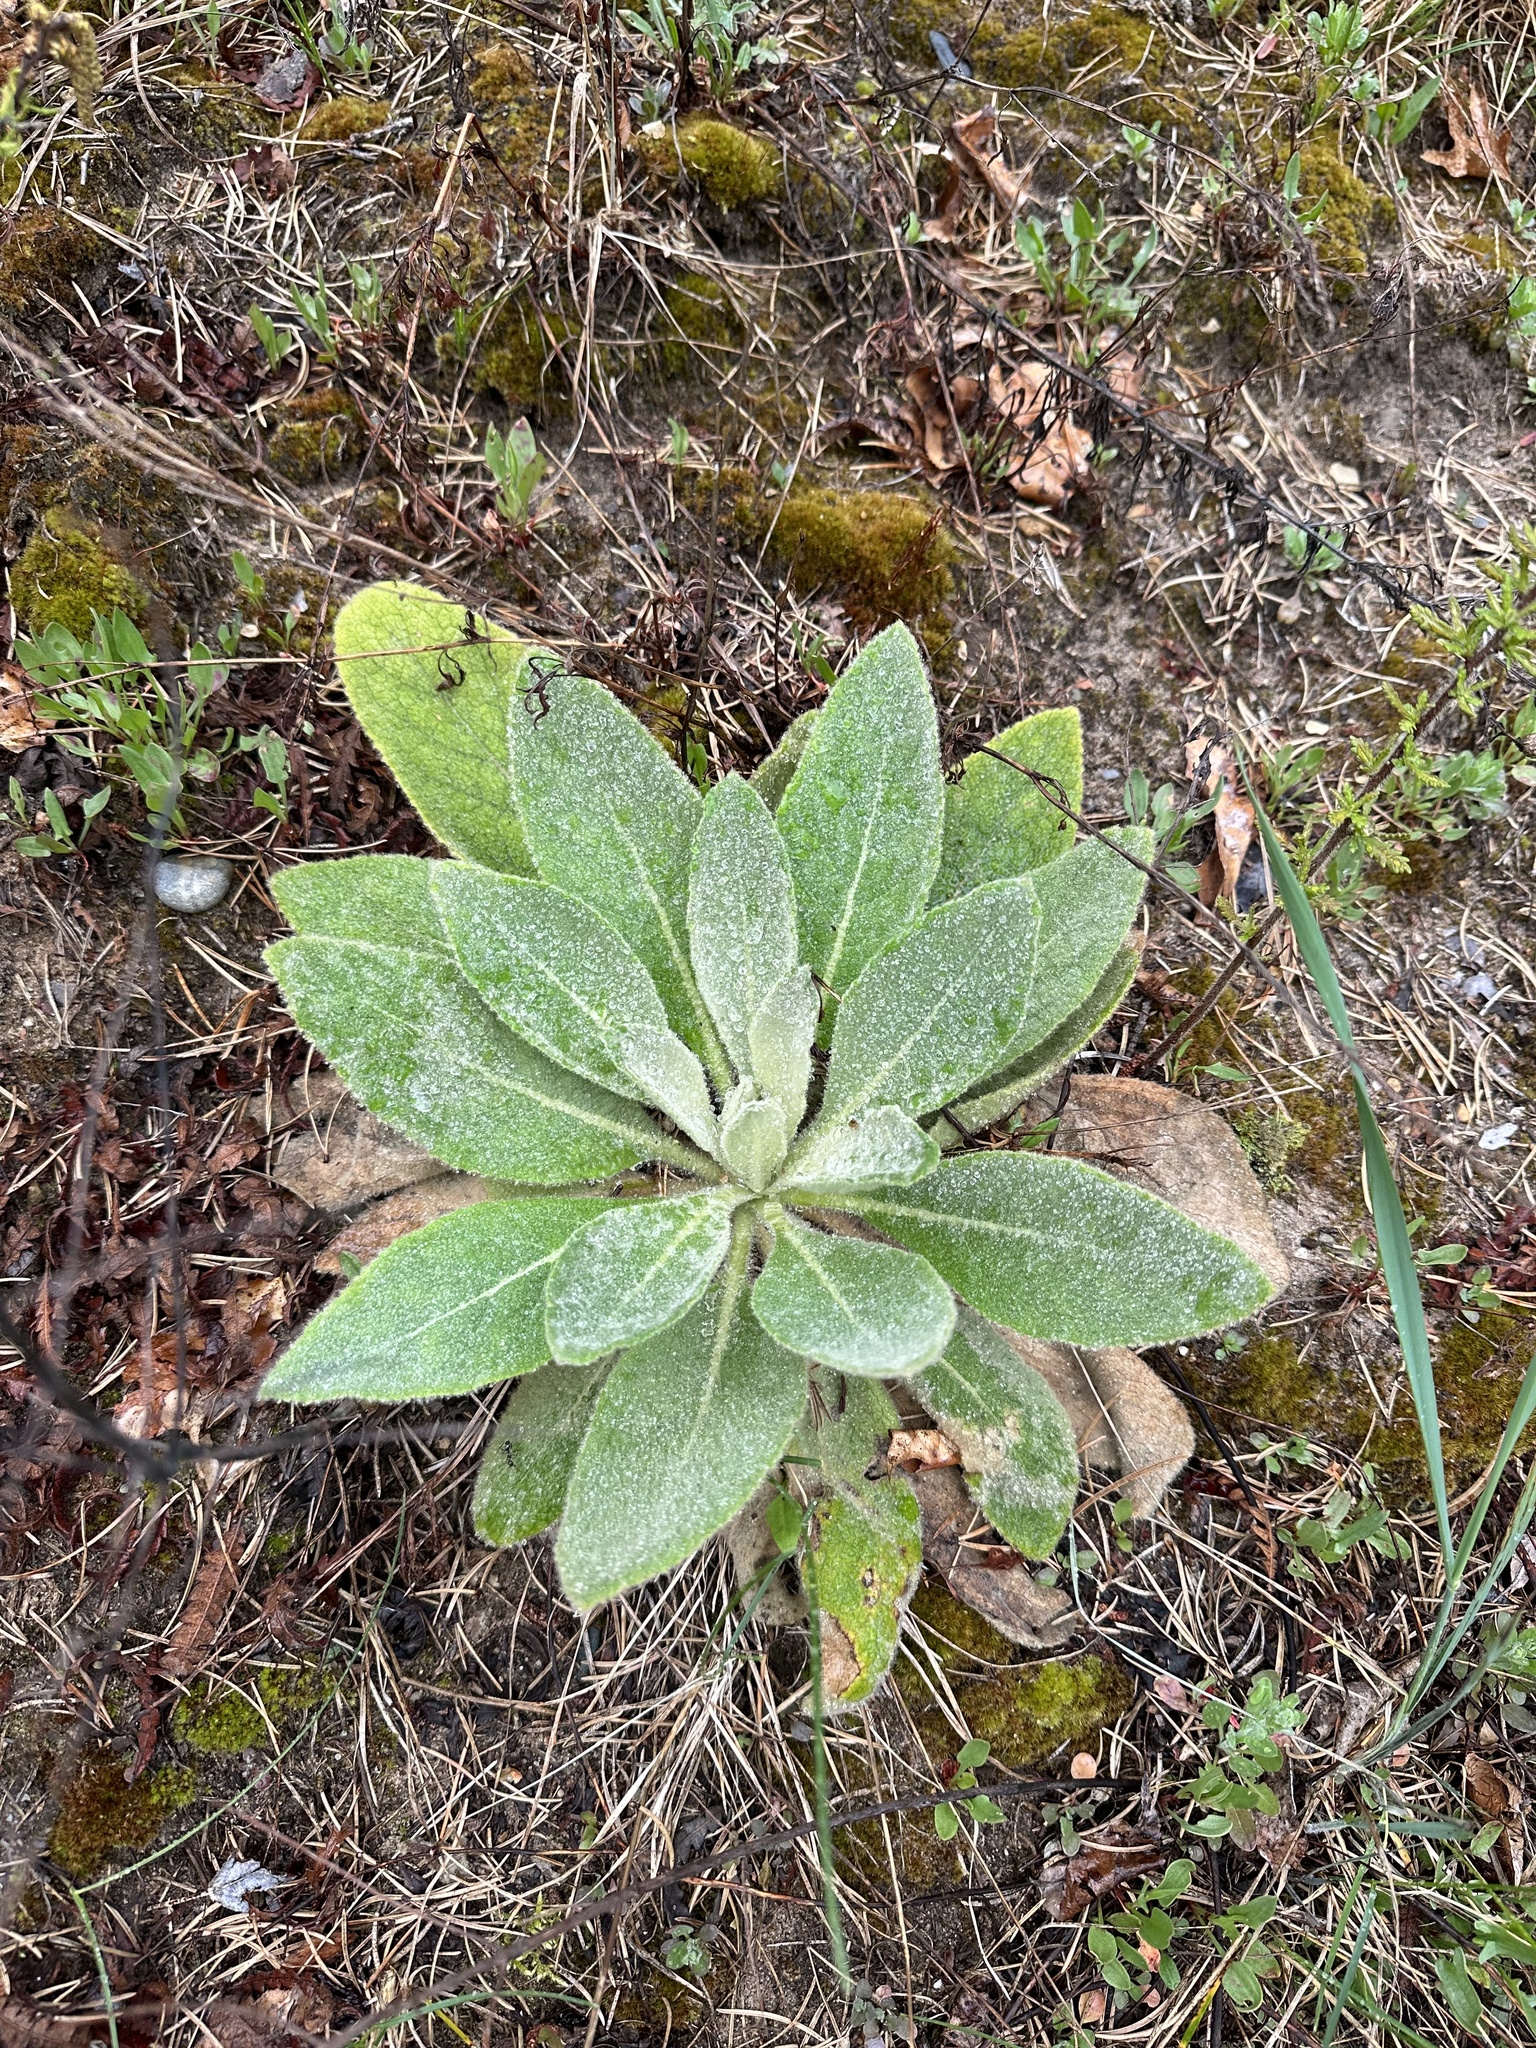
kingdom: Plantae
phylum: Tracheophyta
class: Magnoliopsida
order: Lamiales
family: Scrophulariaceae
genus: Verbascum
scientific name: Verbascum thapsus
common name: Common mullein
